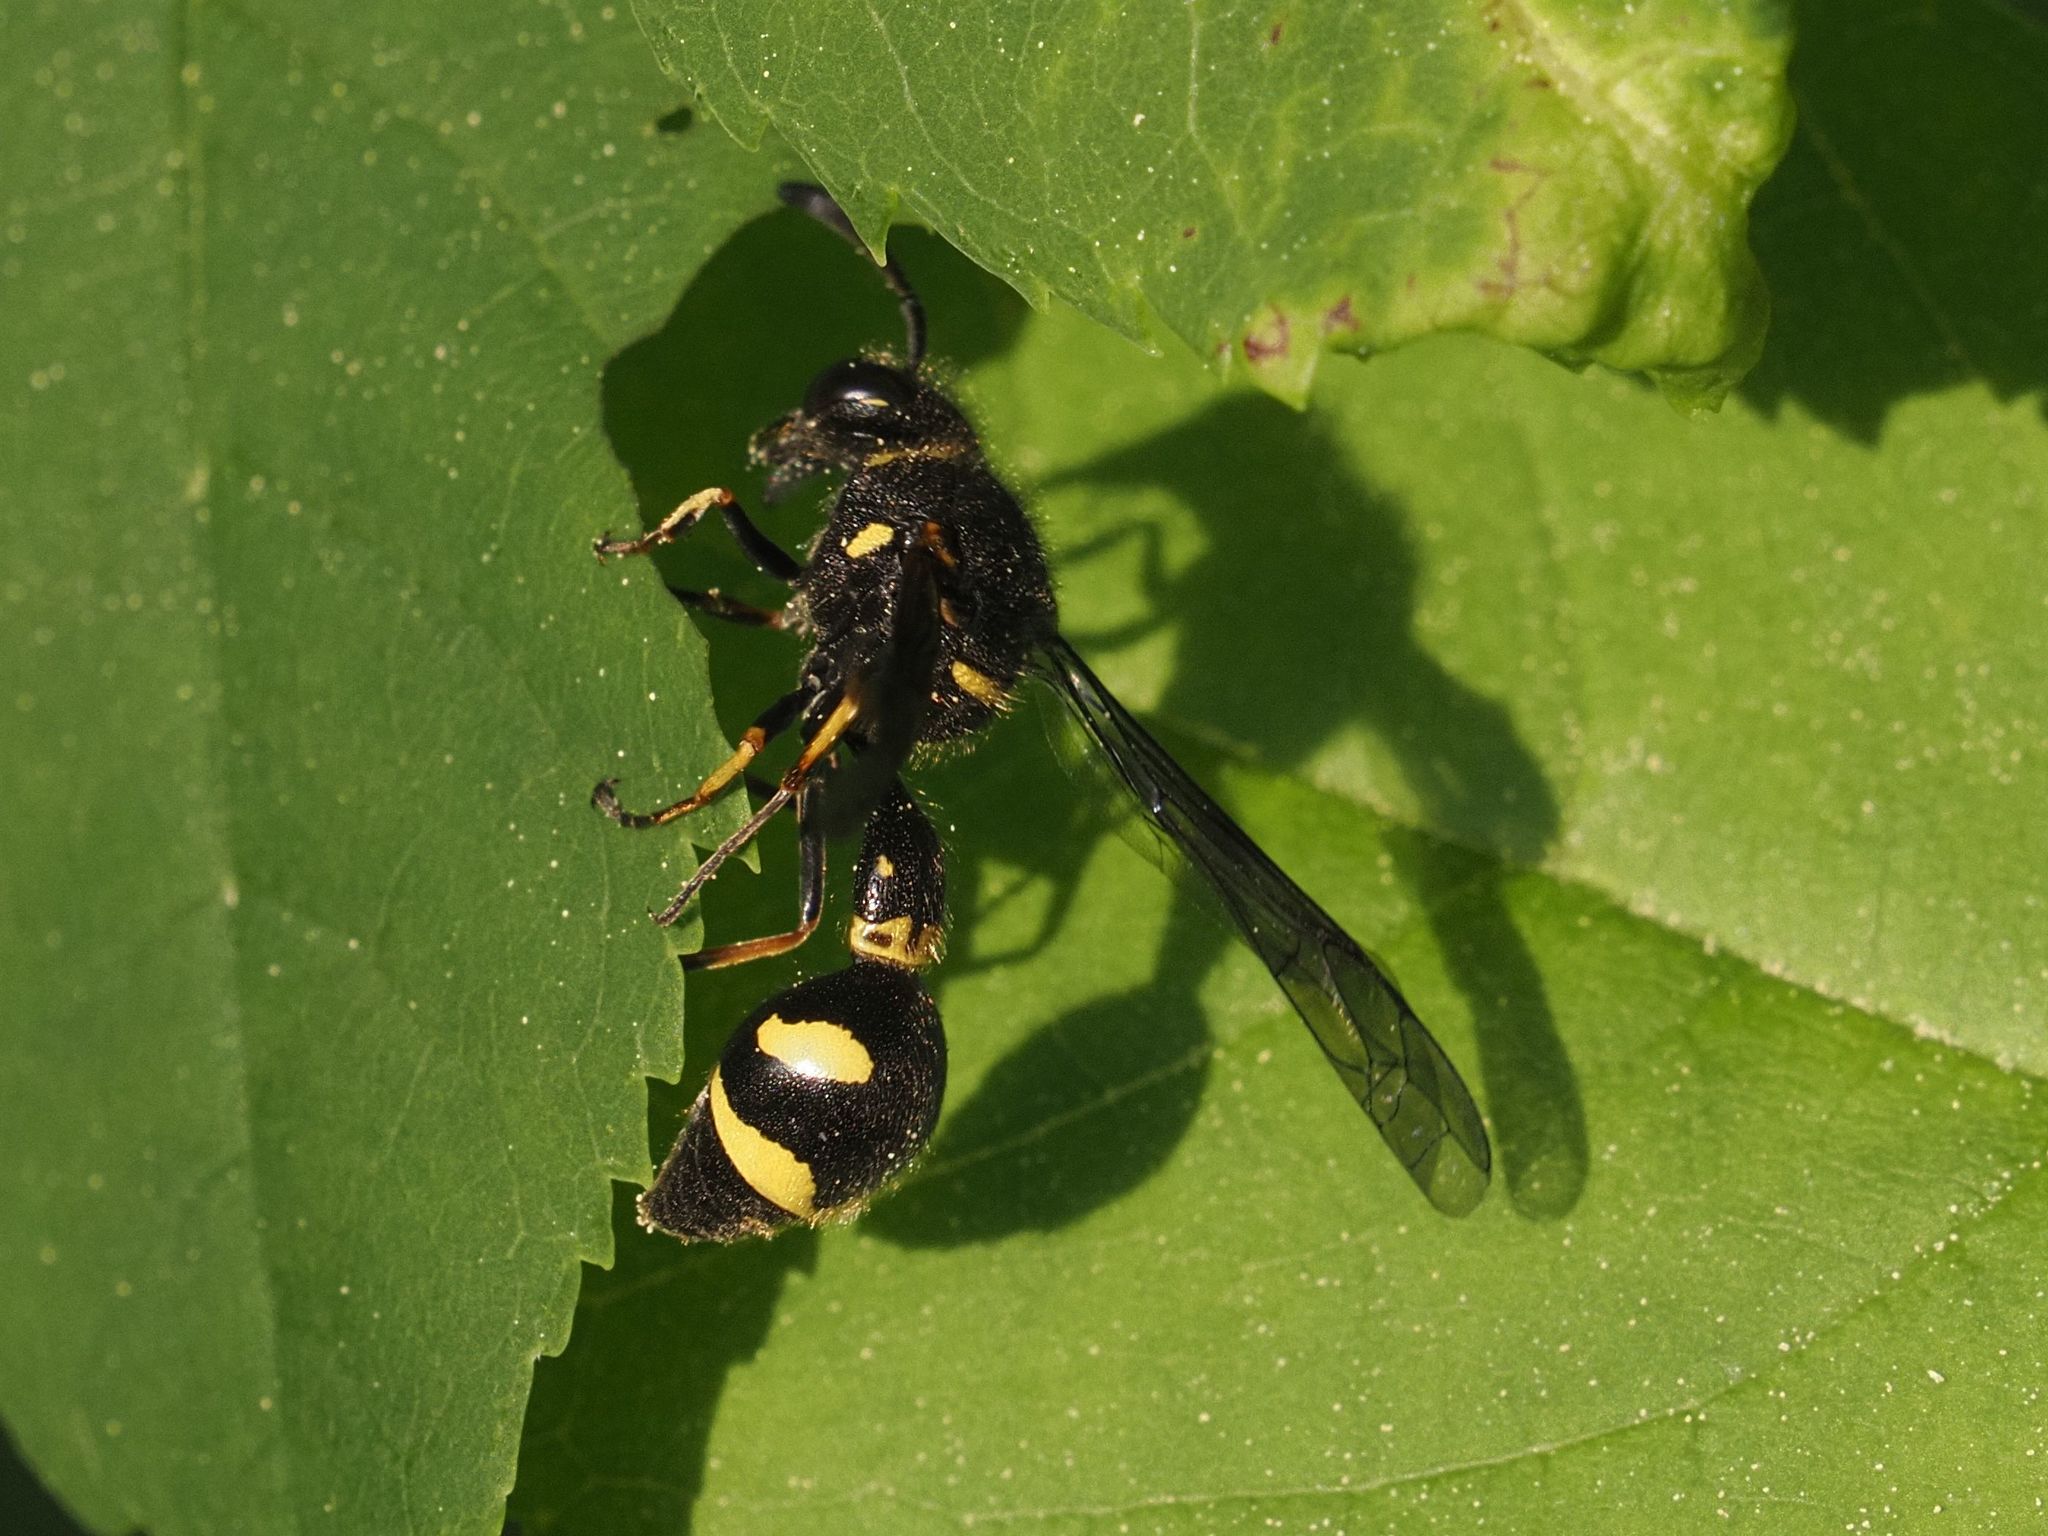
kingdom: Animalia
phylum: Arthropoda
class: Insecta
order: Hymenoptera
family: Vespidae
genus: Eumenes
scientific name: Eumenes coronatus
